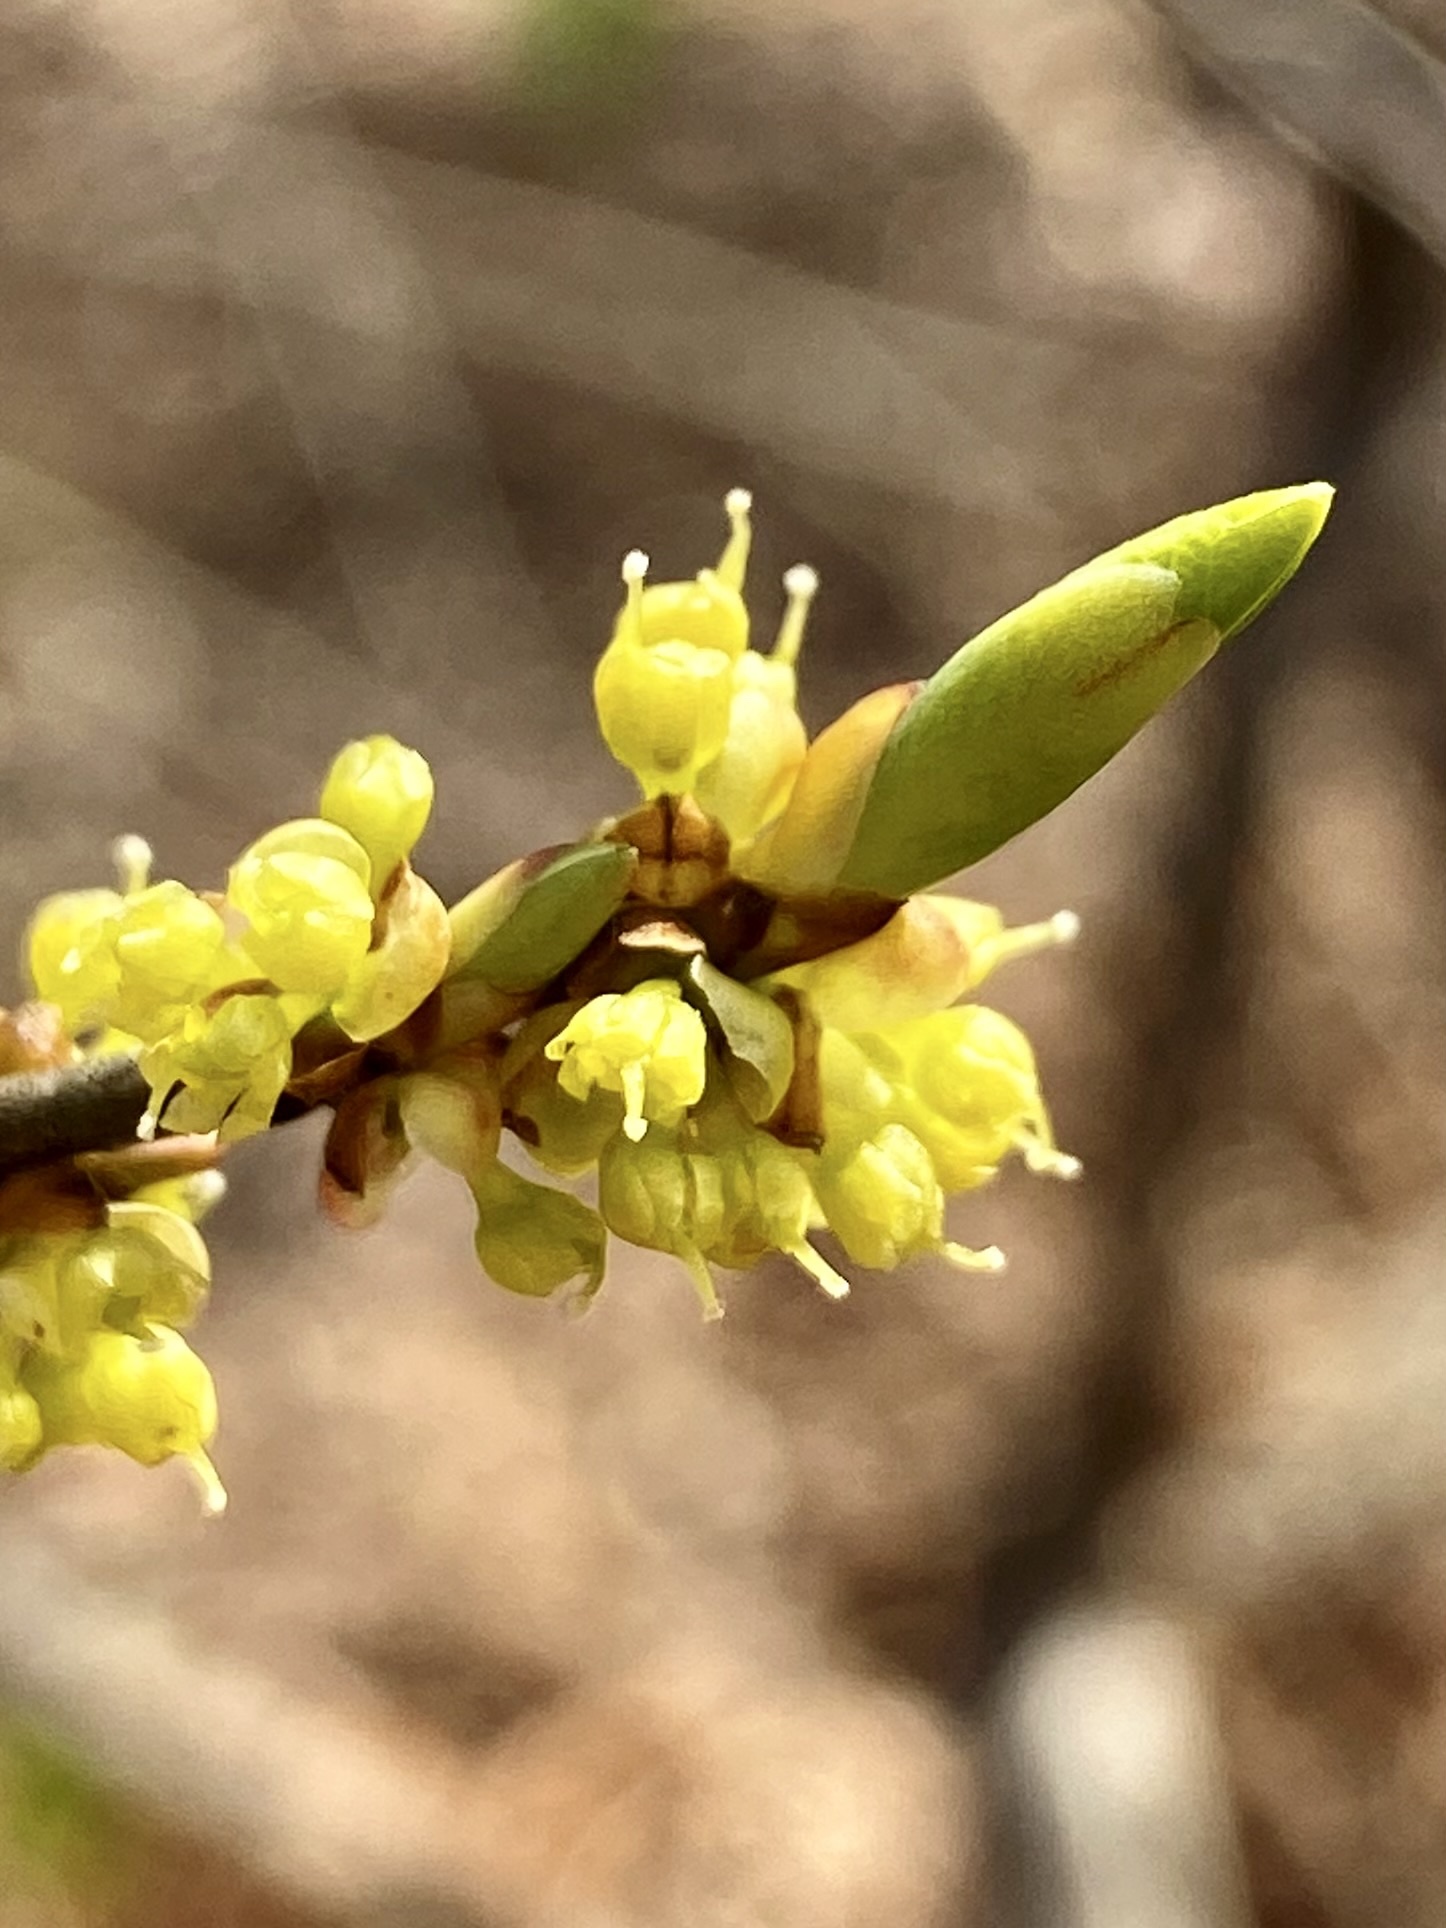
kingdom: Plantae
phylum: Tracheophyta
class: Magnoliopsida
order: Laurales
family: Lauraceae
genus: Lindera
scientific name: Lindera benzoin
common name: Spicebush
